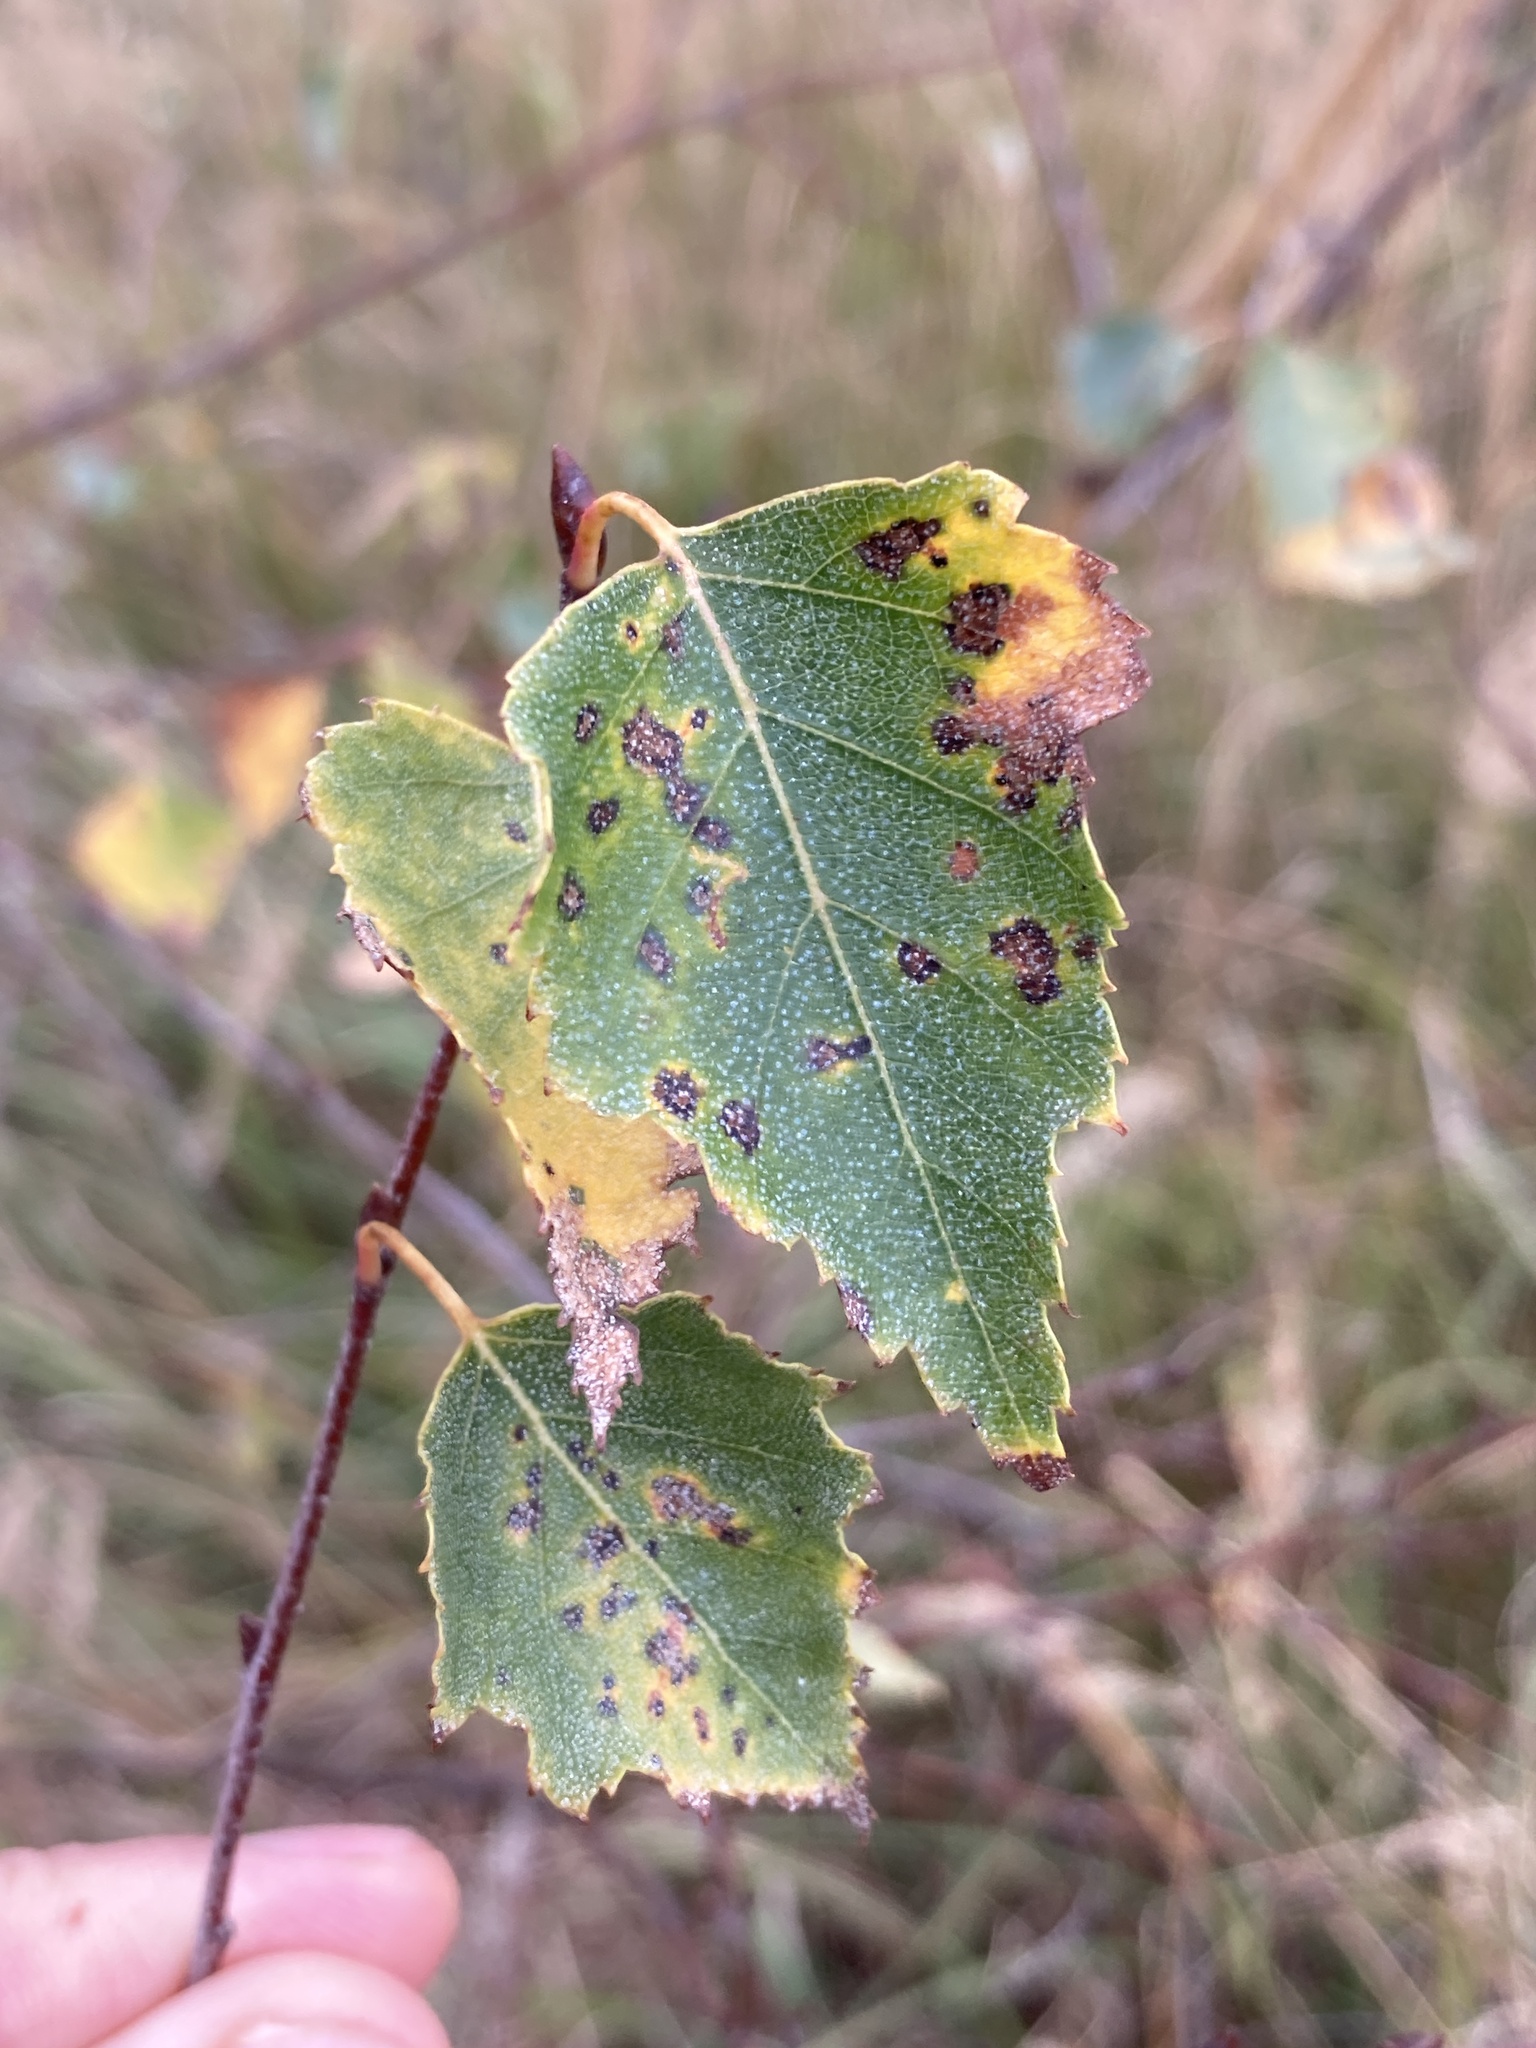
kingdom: Plantae
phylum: Tracheophyta
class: Magnoliopsida
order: Fagales
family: Betulaceae
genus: Betula
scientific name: Betula pendula
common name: Silver birch
